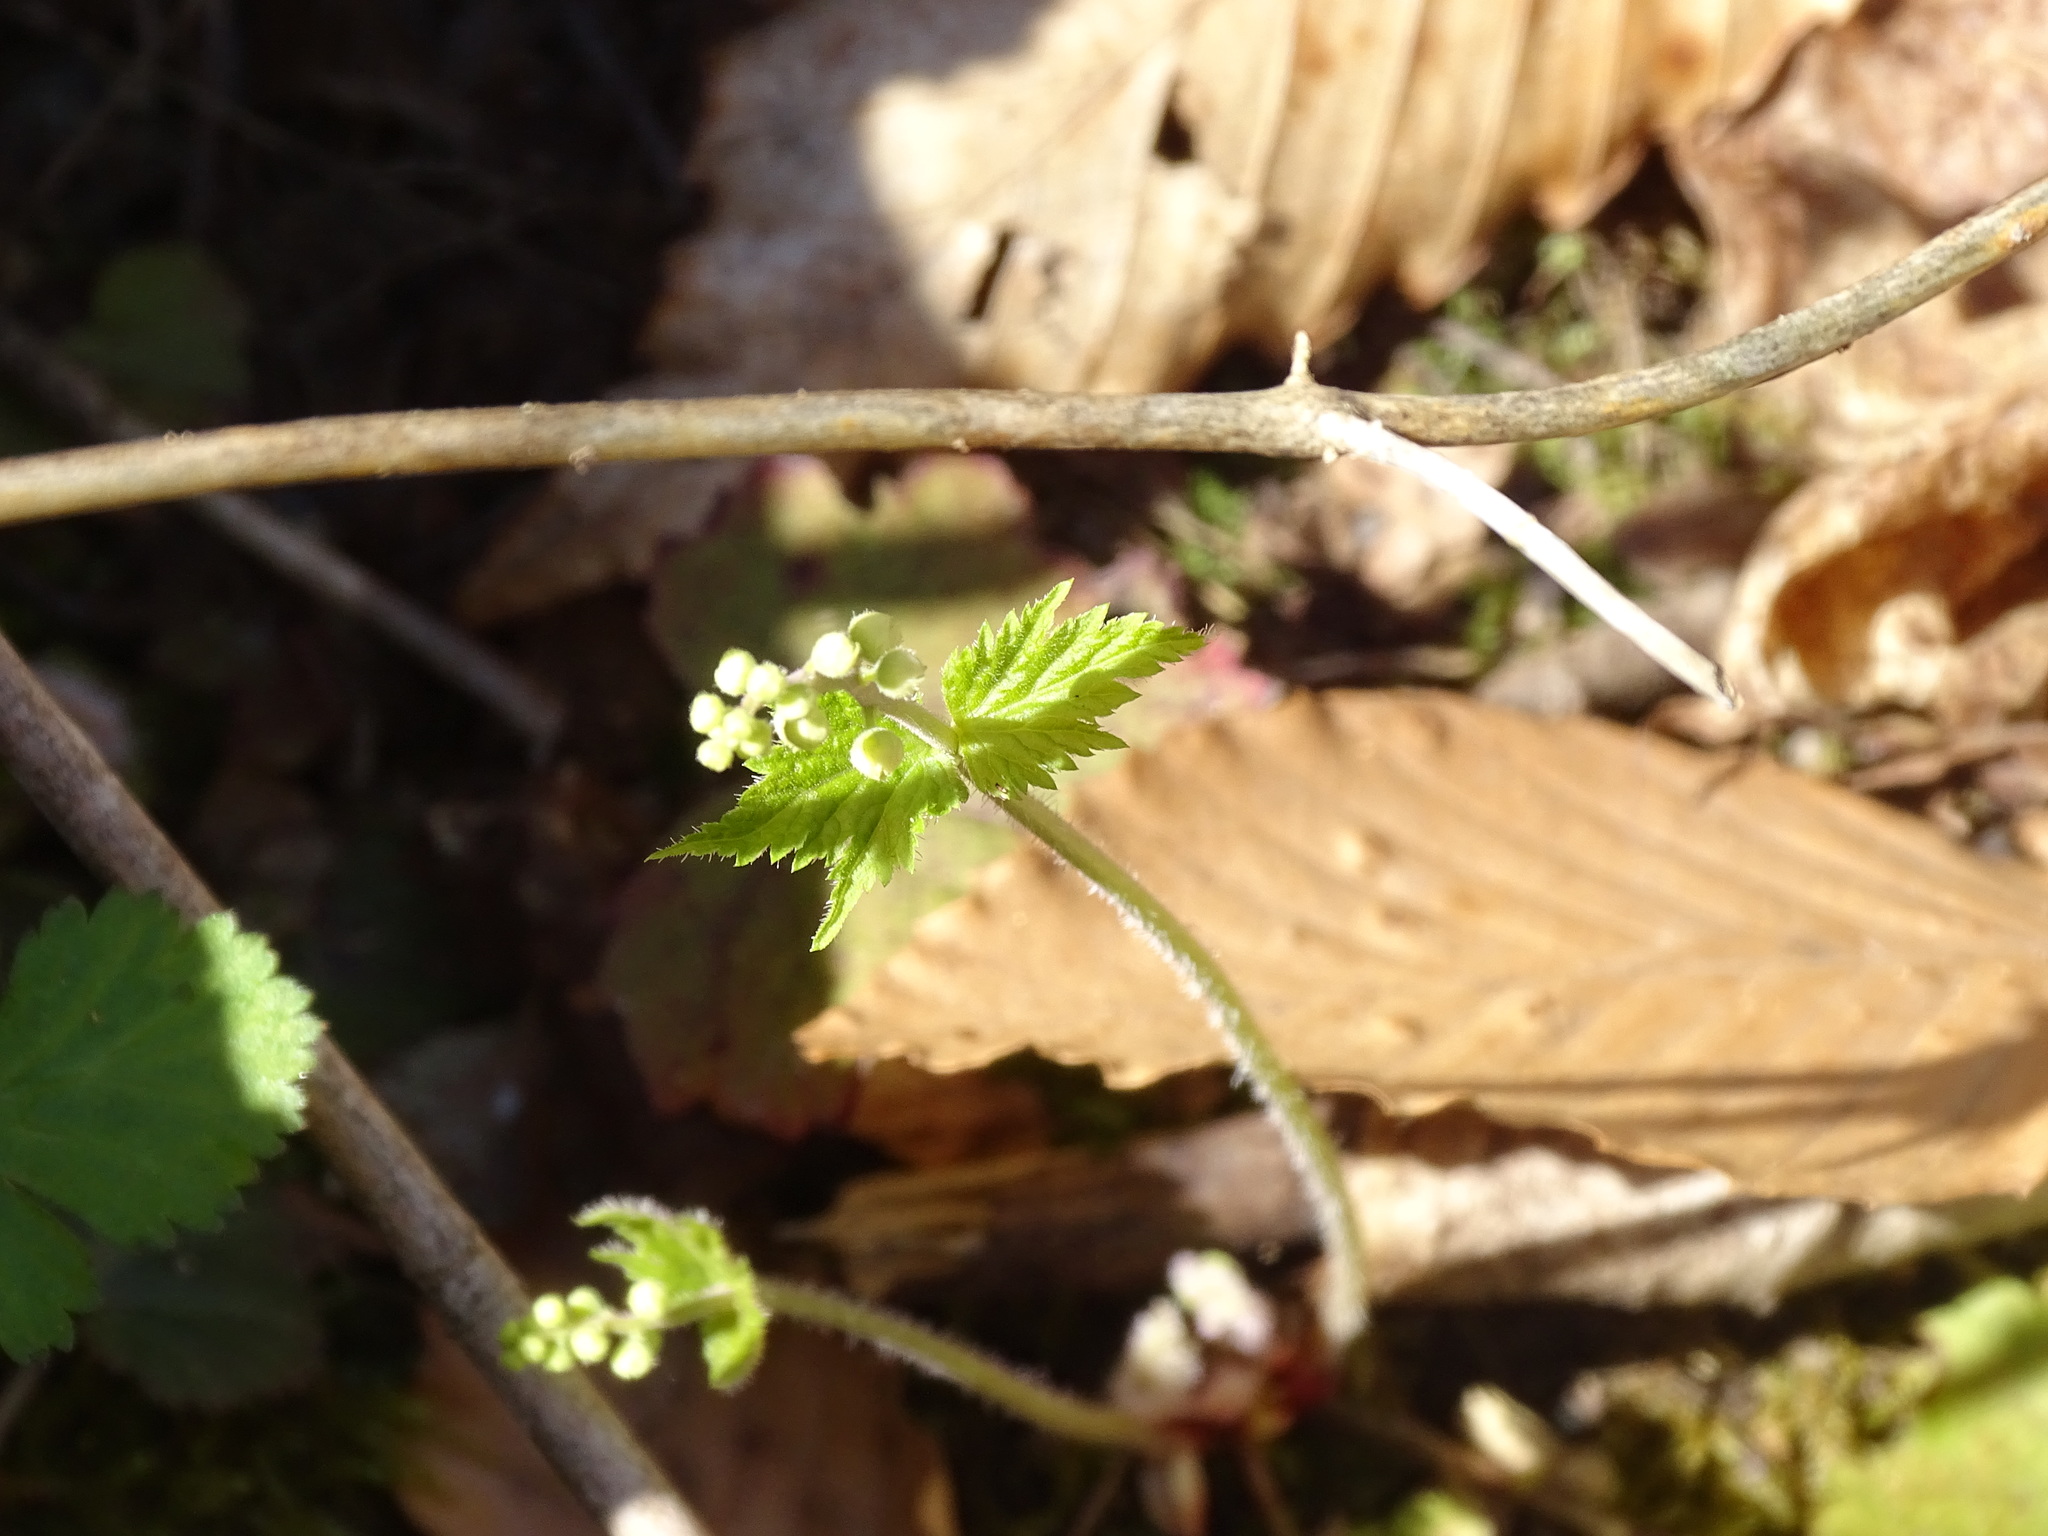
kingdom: Plantae
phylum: Tracheophyta
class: Magnoliopsida
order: Saxifragales
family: Saxifragaceae
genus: Mitella
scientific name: Mitella diphylla
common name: Coolwort
